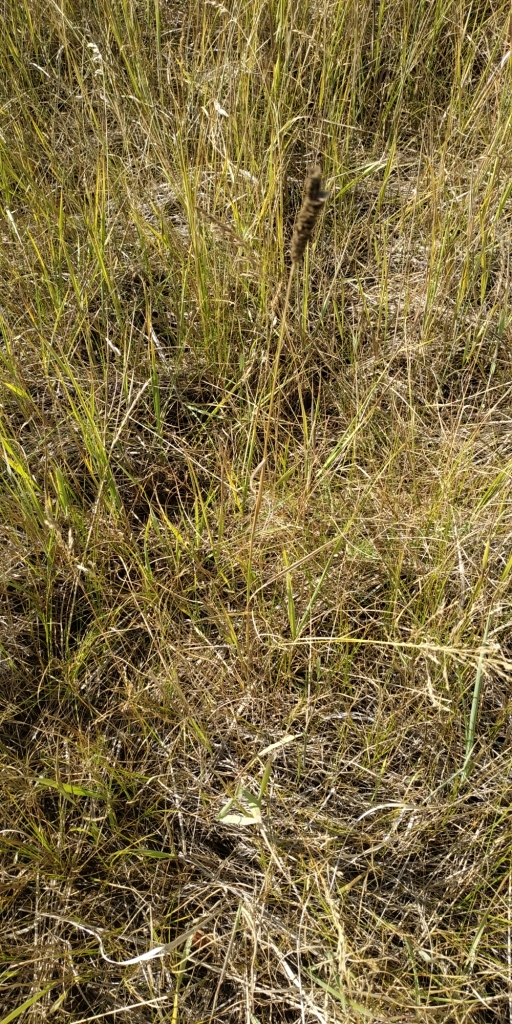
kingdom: Plantae
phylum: Tracheophyta
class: Liliopsida
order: Poales
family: Poaceae
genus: Alopecurus
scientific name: Alopecurus arundinaceus
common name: Creeping meadow foxtail
